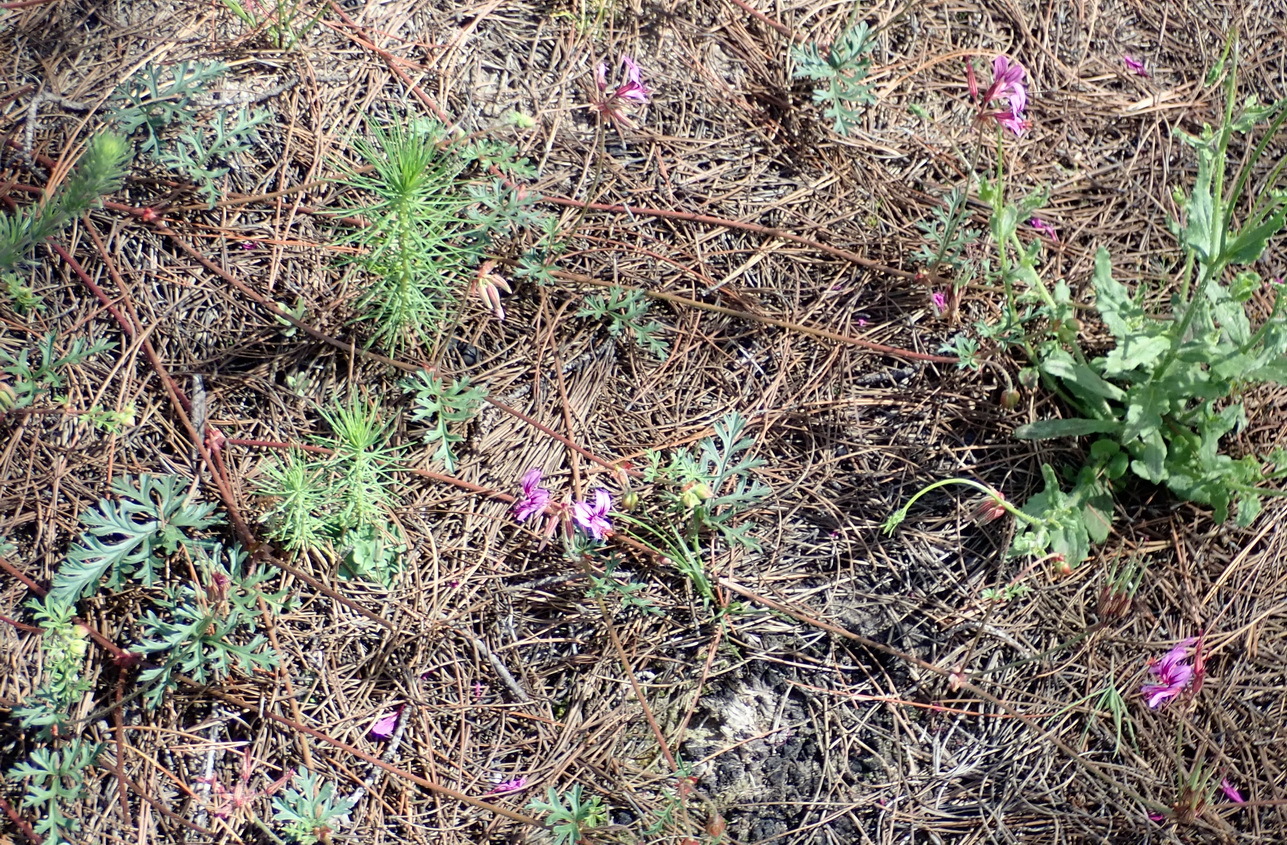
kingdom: Plantae
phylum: Tracheophyta
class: Magnoliopsida
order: Geraniales
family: Geraniaceae
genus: Pelargonium
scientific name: Pelargonium multicaule
